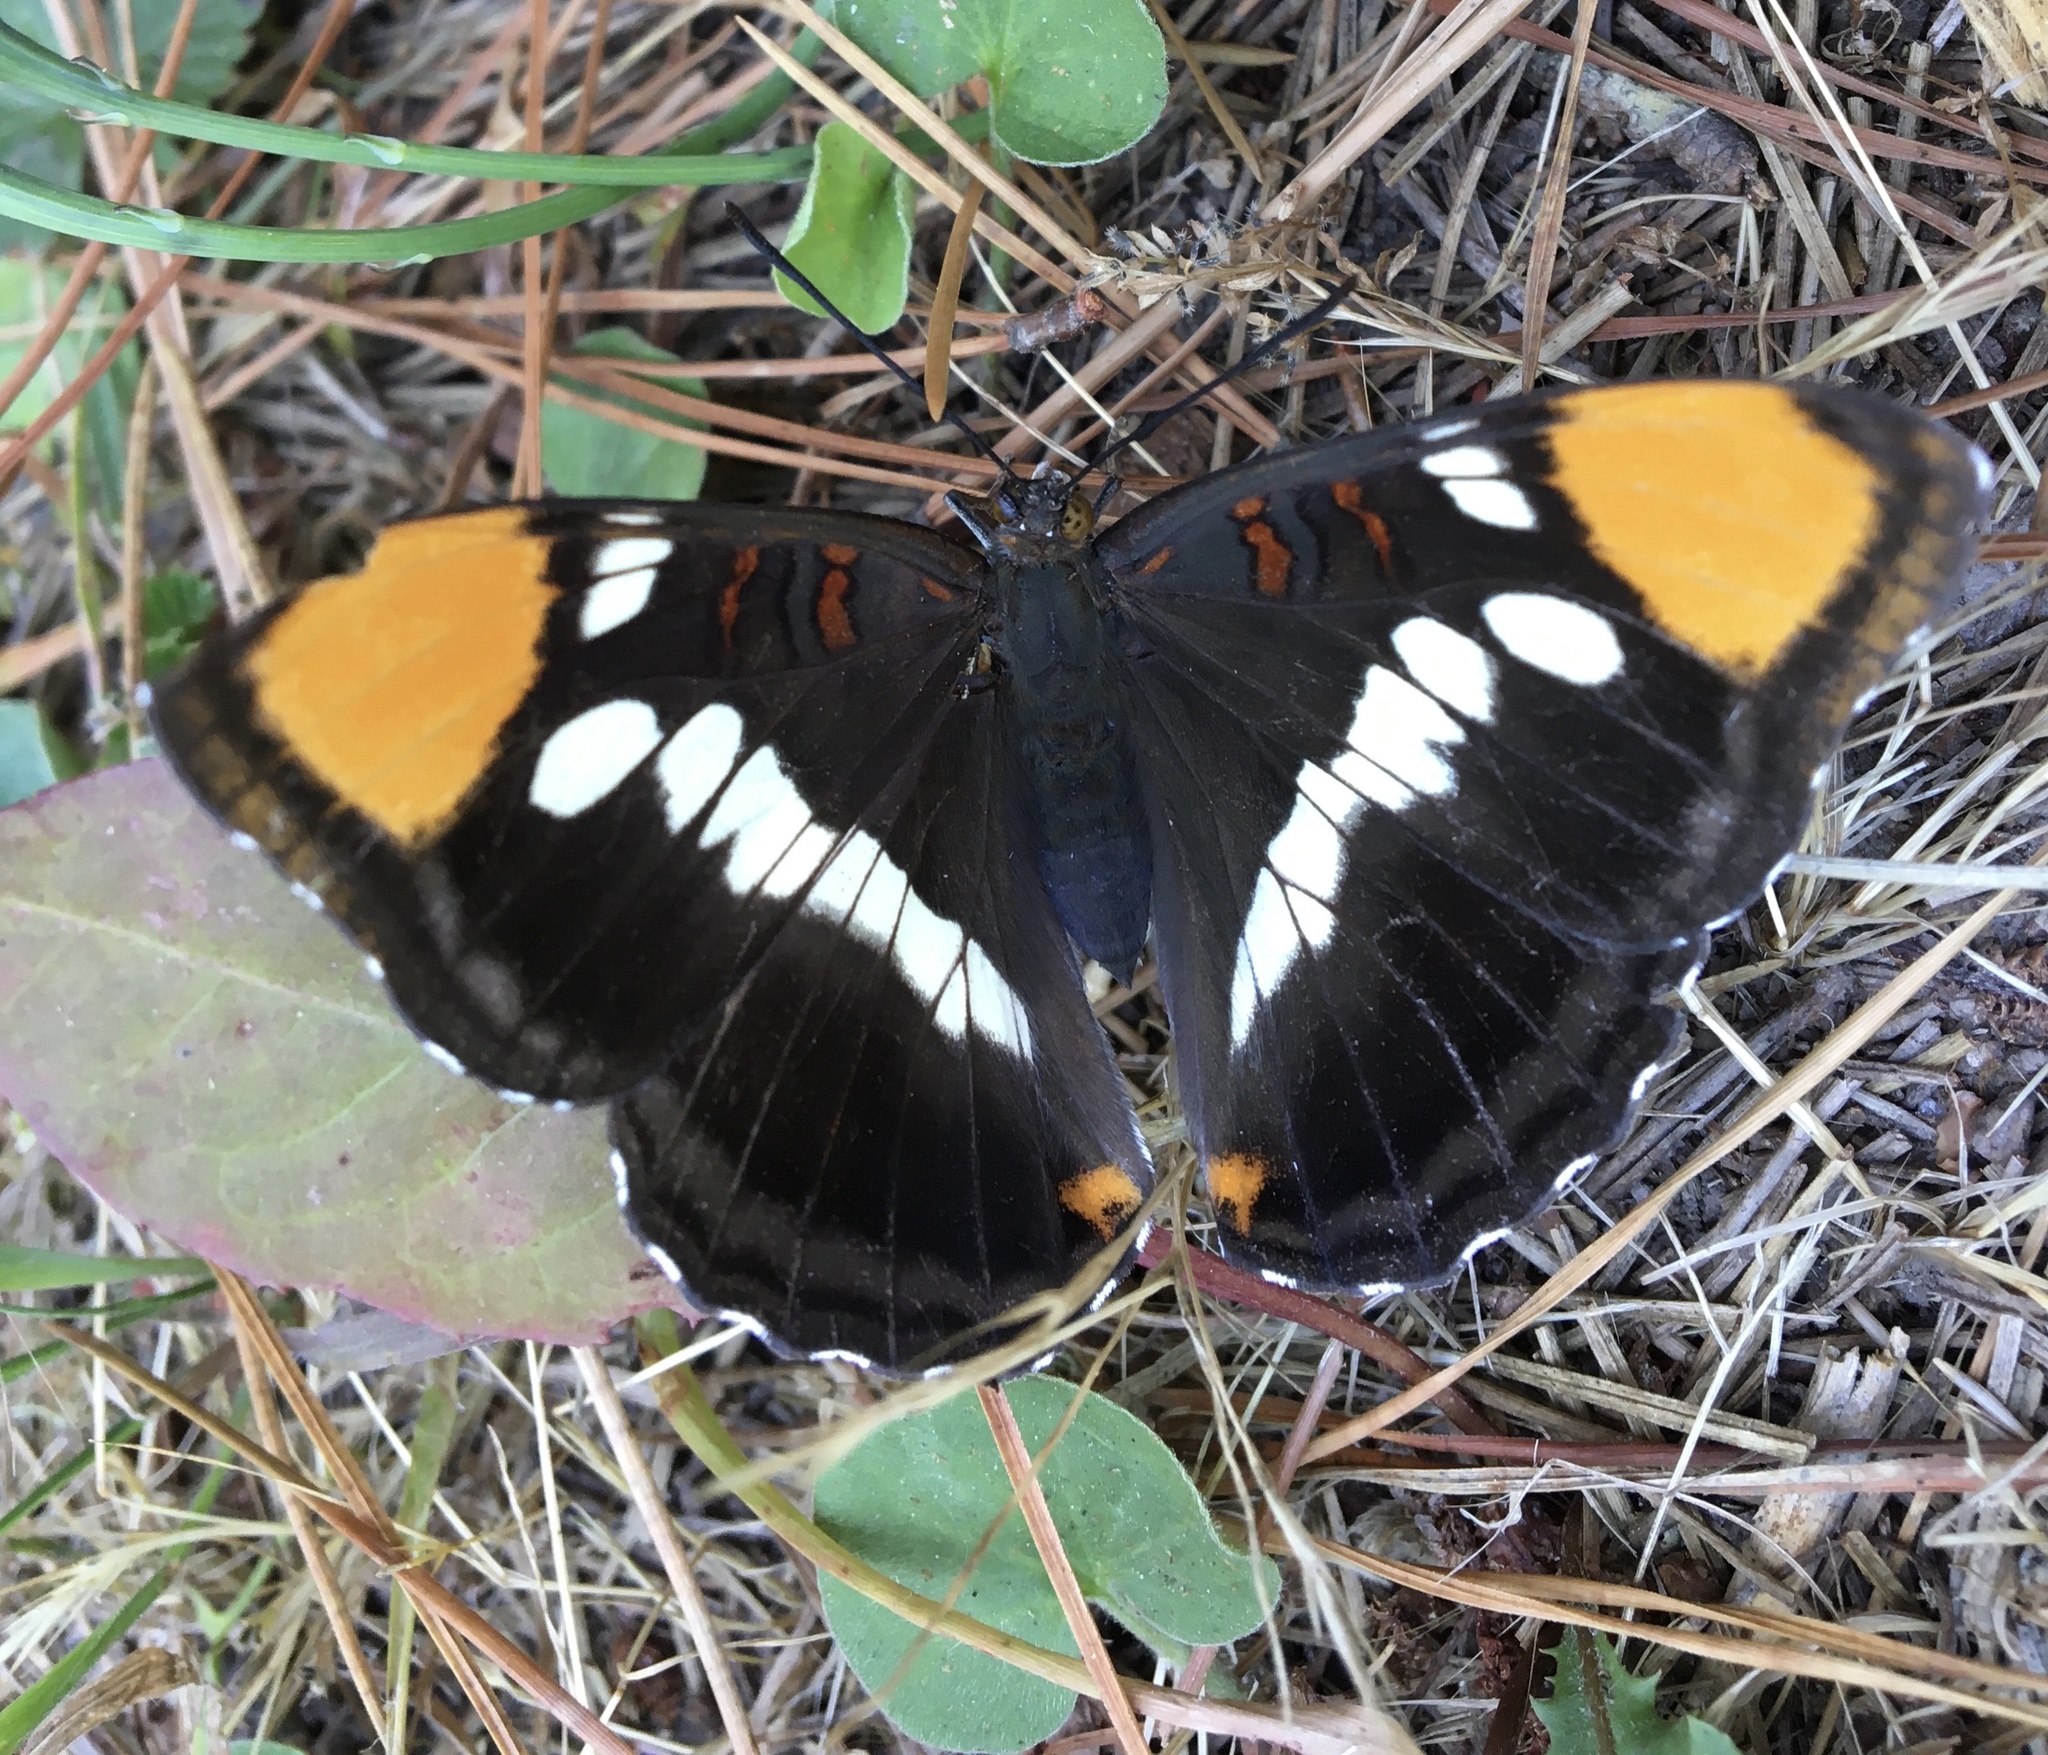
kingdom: Animalia
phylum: Arthropoda
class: Insecta
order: Lepidoptera
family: Nymphalidae
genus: Limenitis
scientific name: Limenitis bredowii
